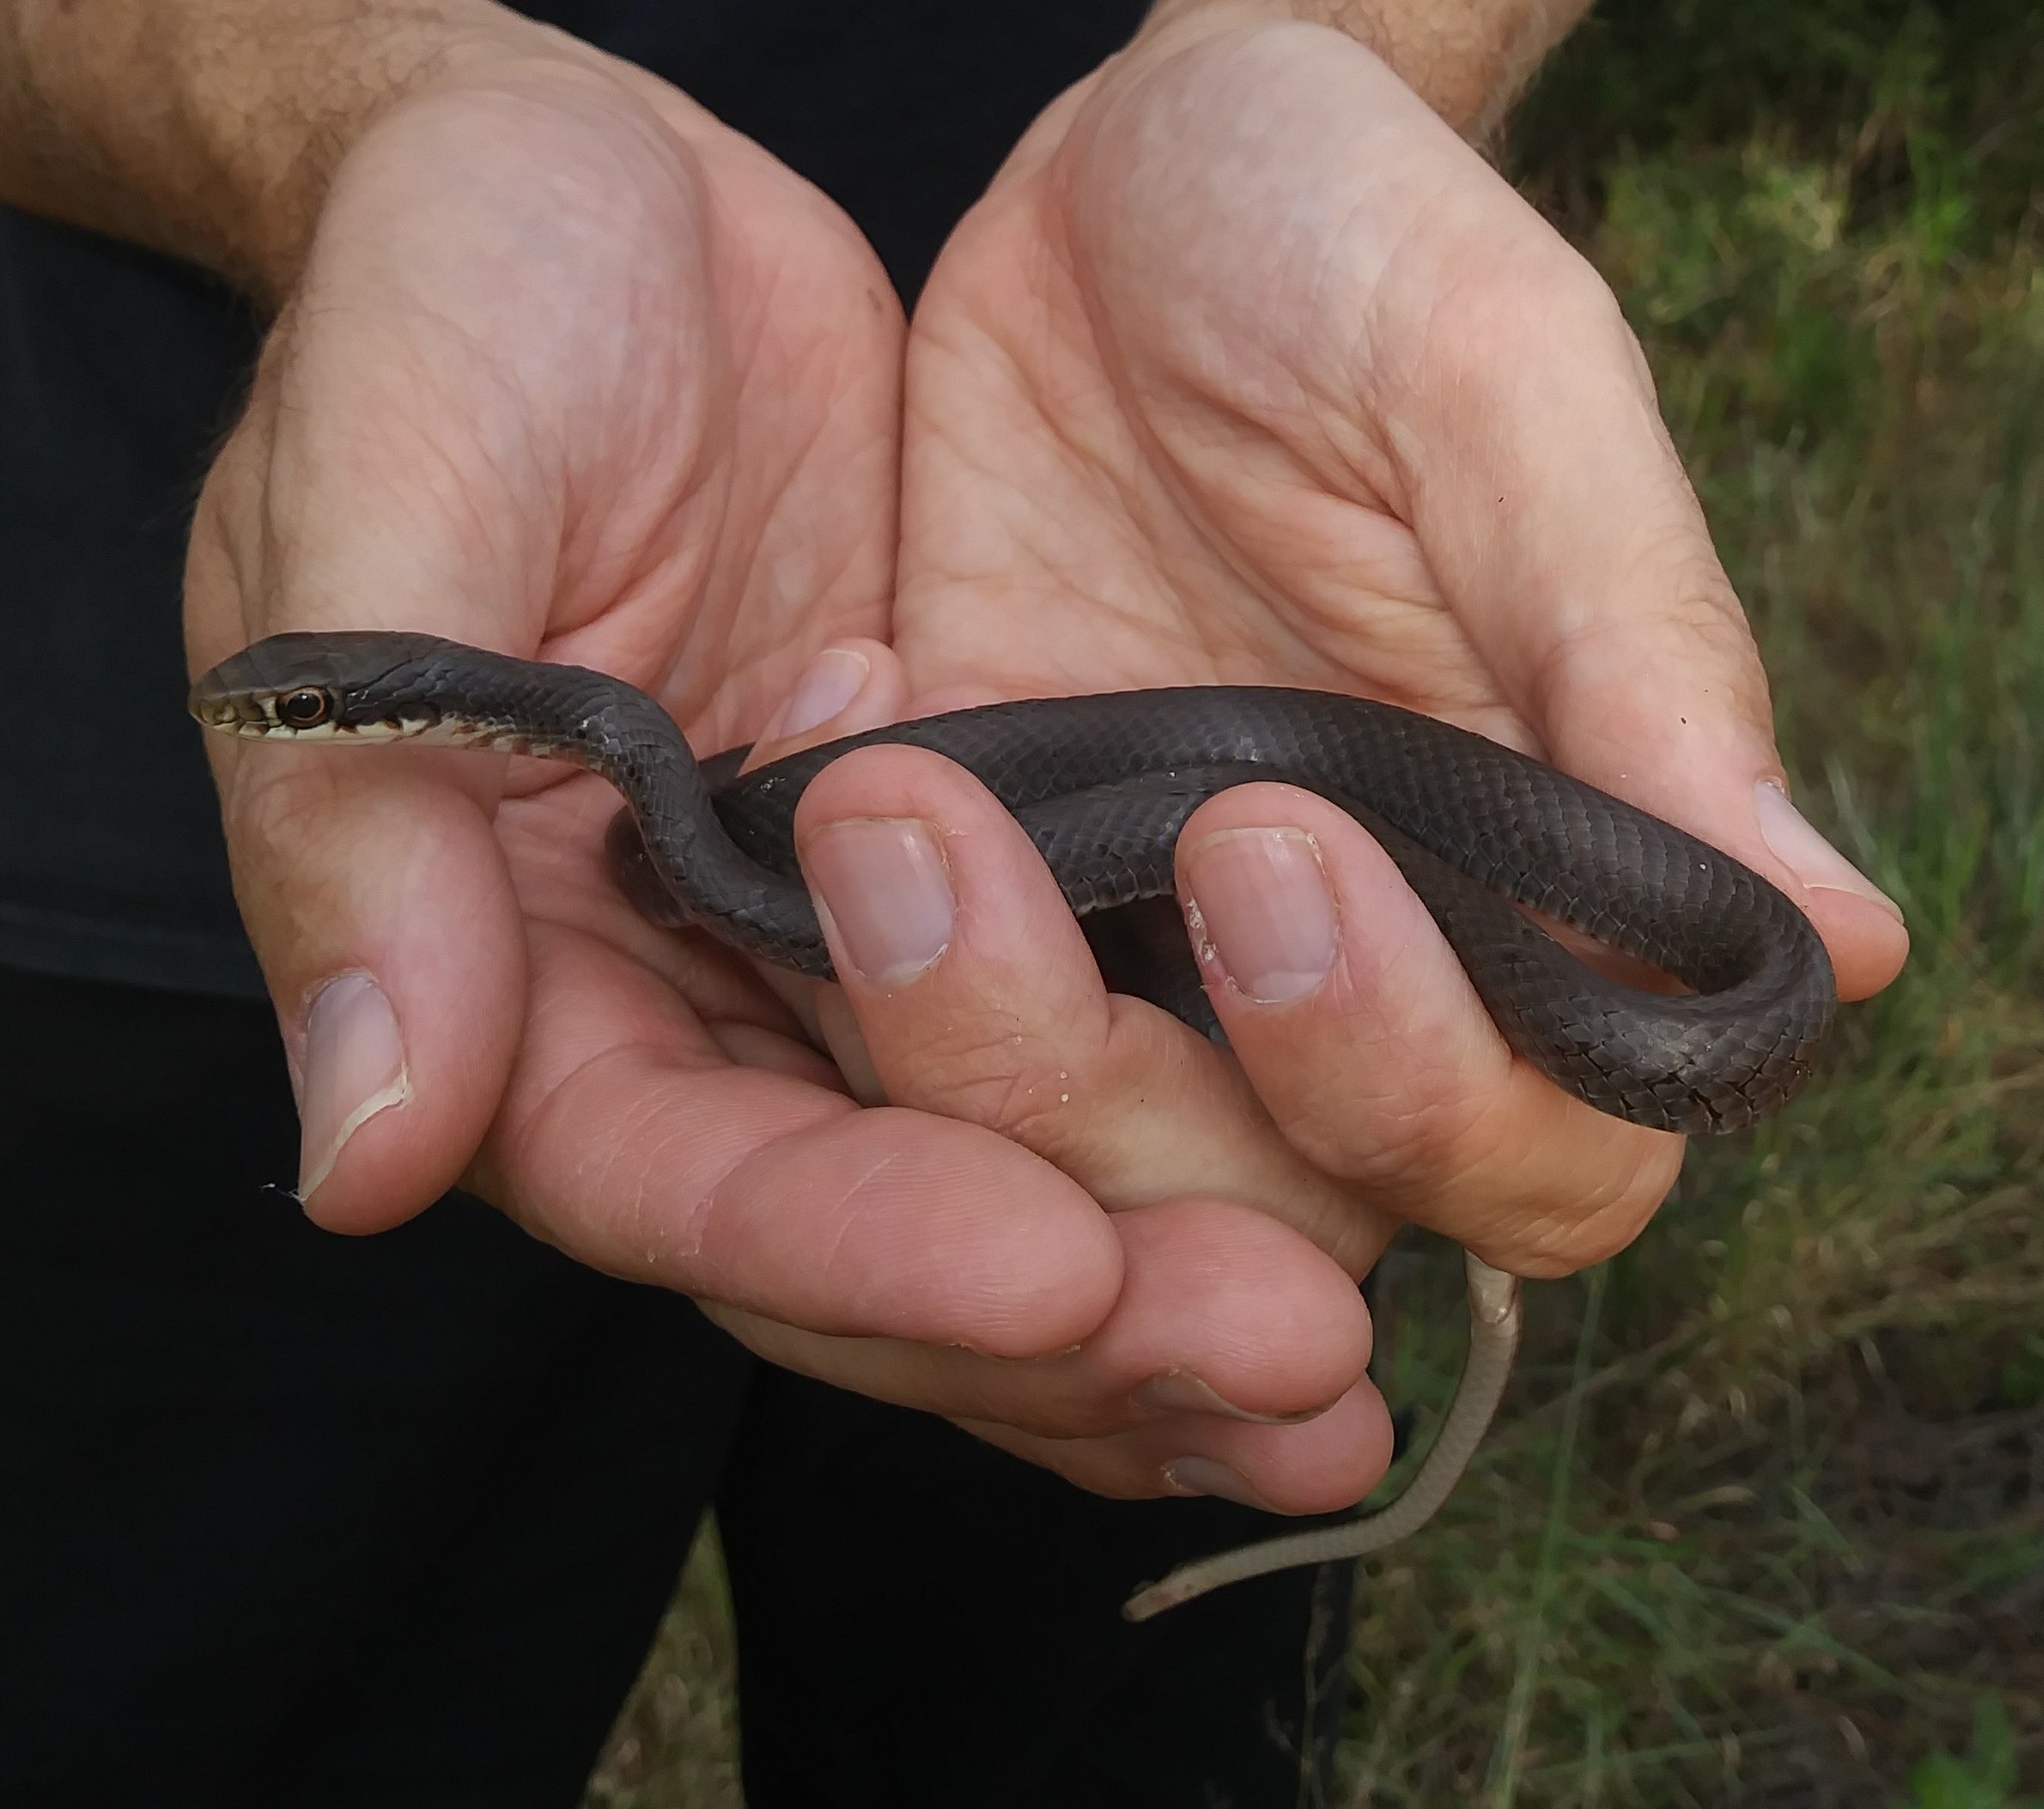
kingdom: Animalia
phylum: Chordata
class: Squamata
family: Colubridae
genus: Coluber
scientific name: Coluber constrictor
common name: Eastern racer
